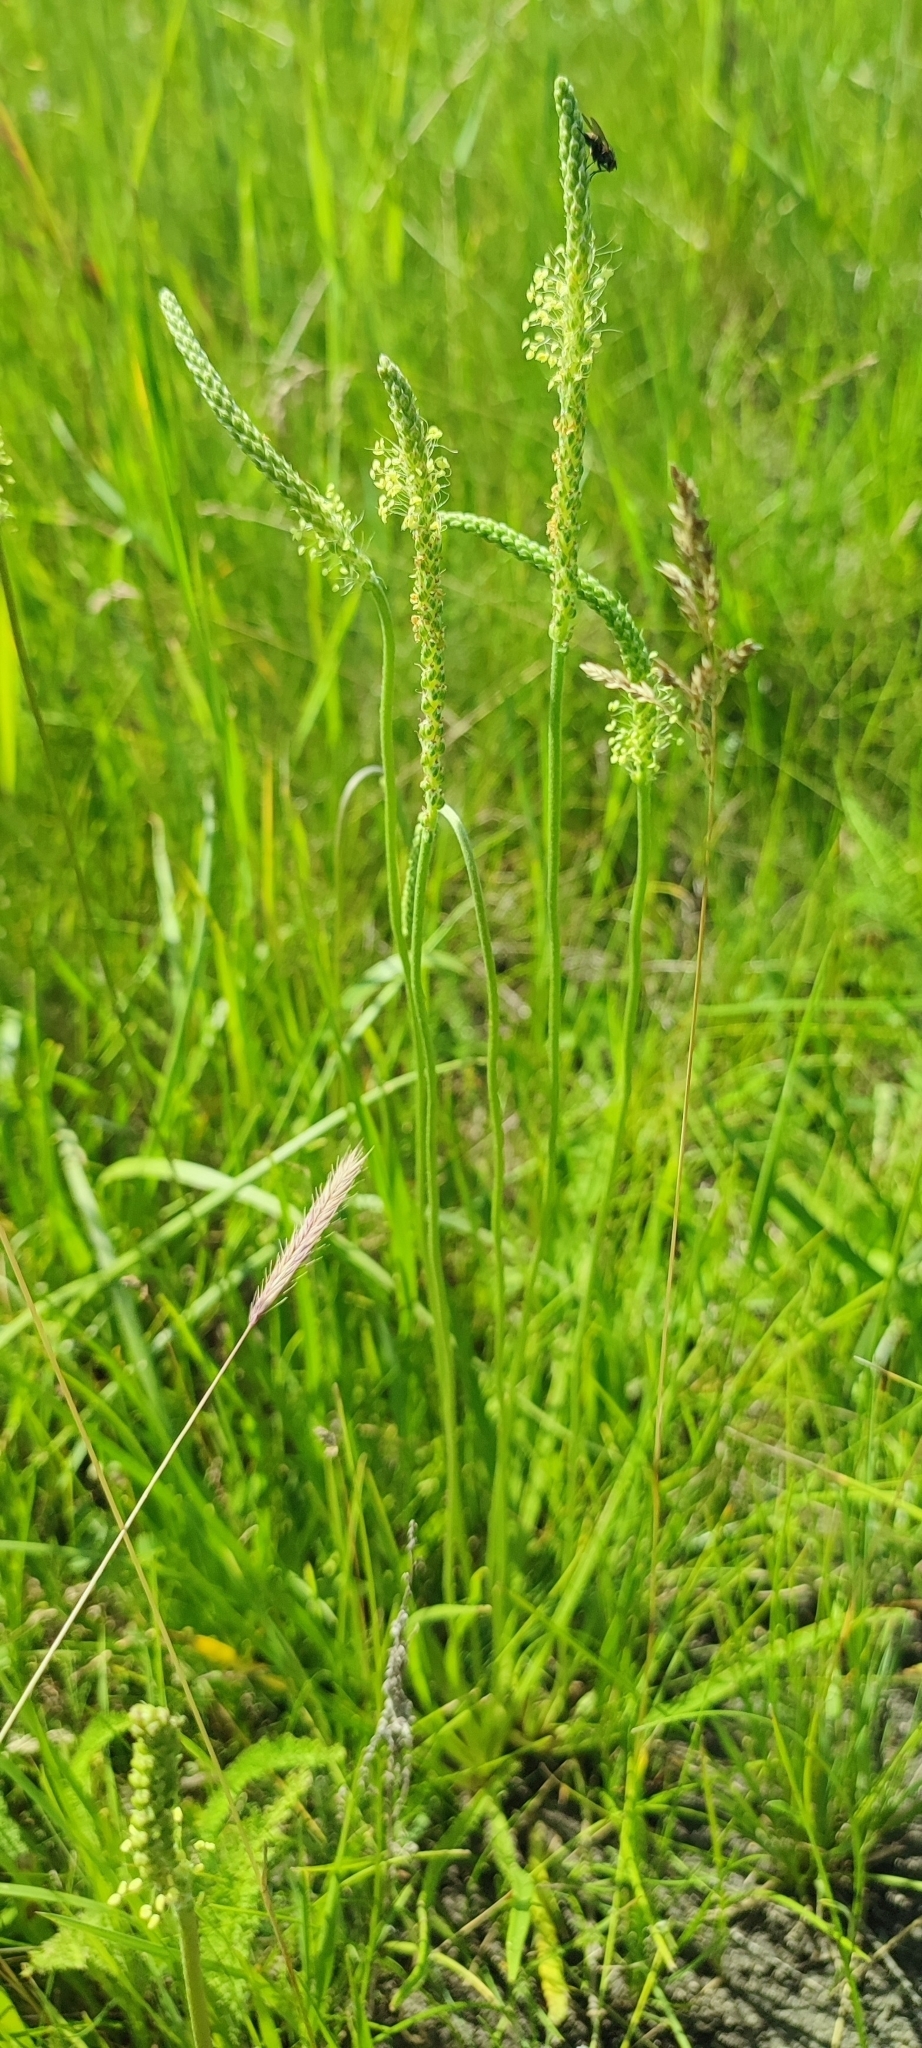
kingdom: Plantae
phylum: Tracheophyta
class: Magnoliopsida
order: Lamiales
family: Plantaginaceae
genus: Plantago
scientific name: Plantago salsa
